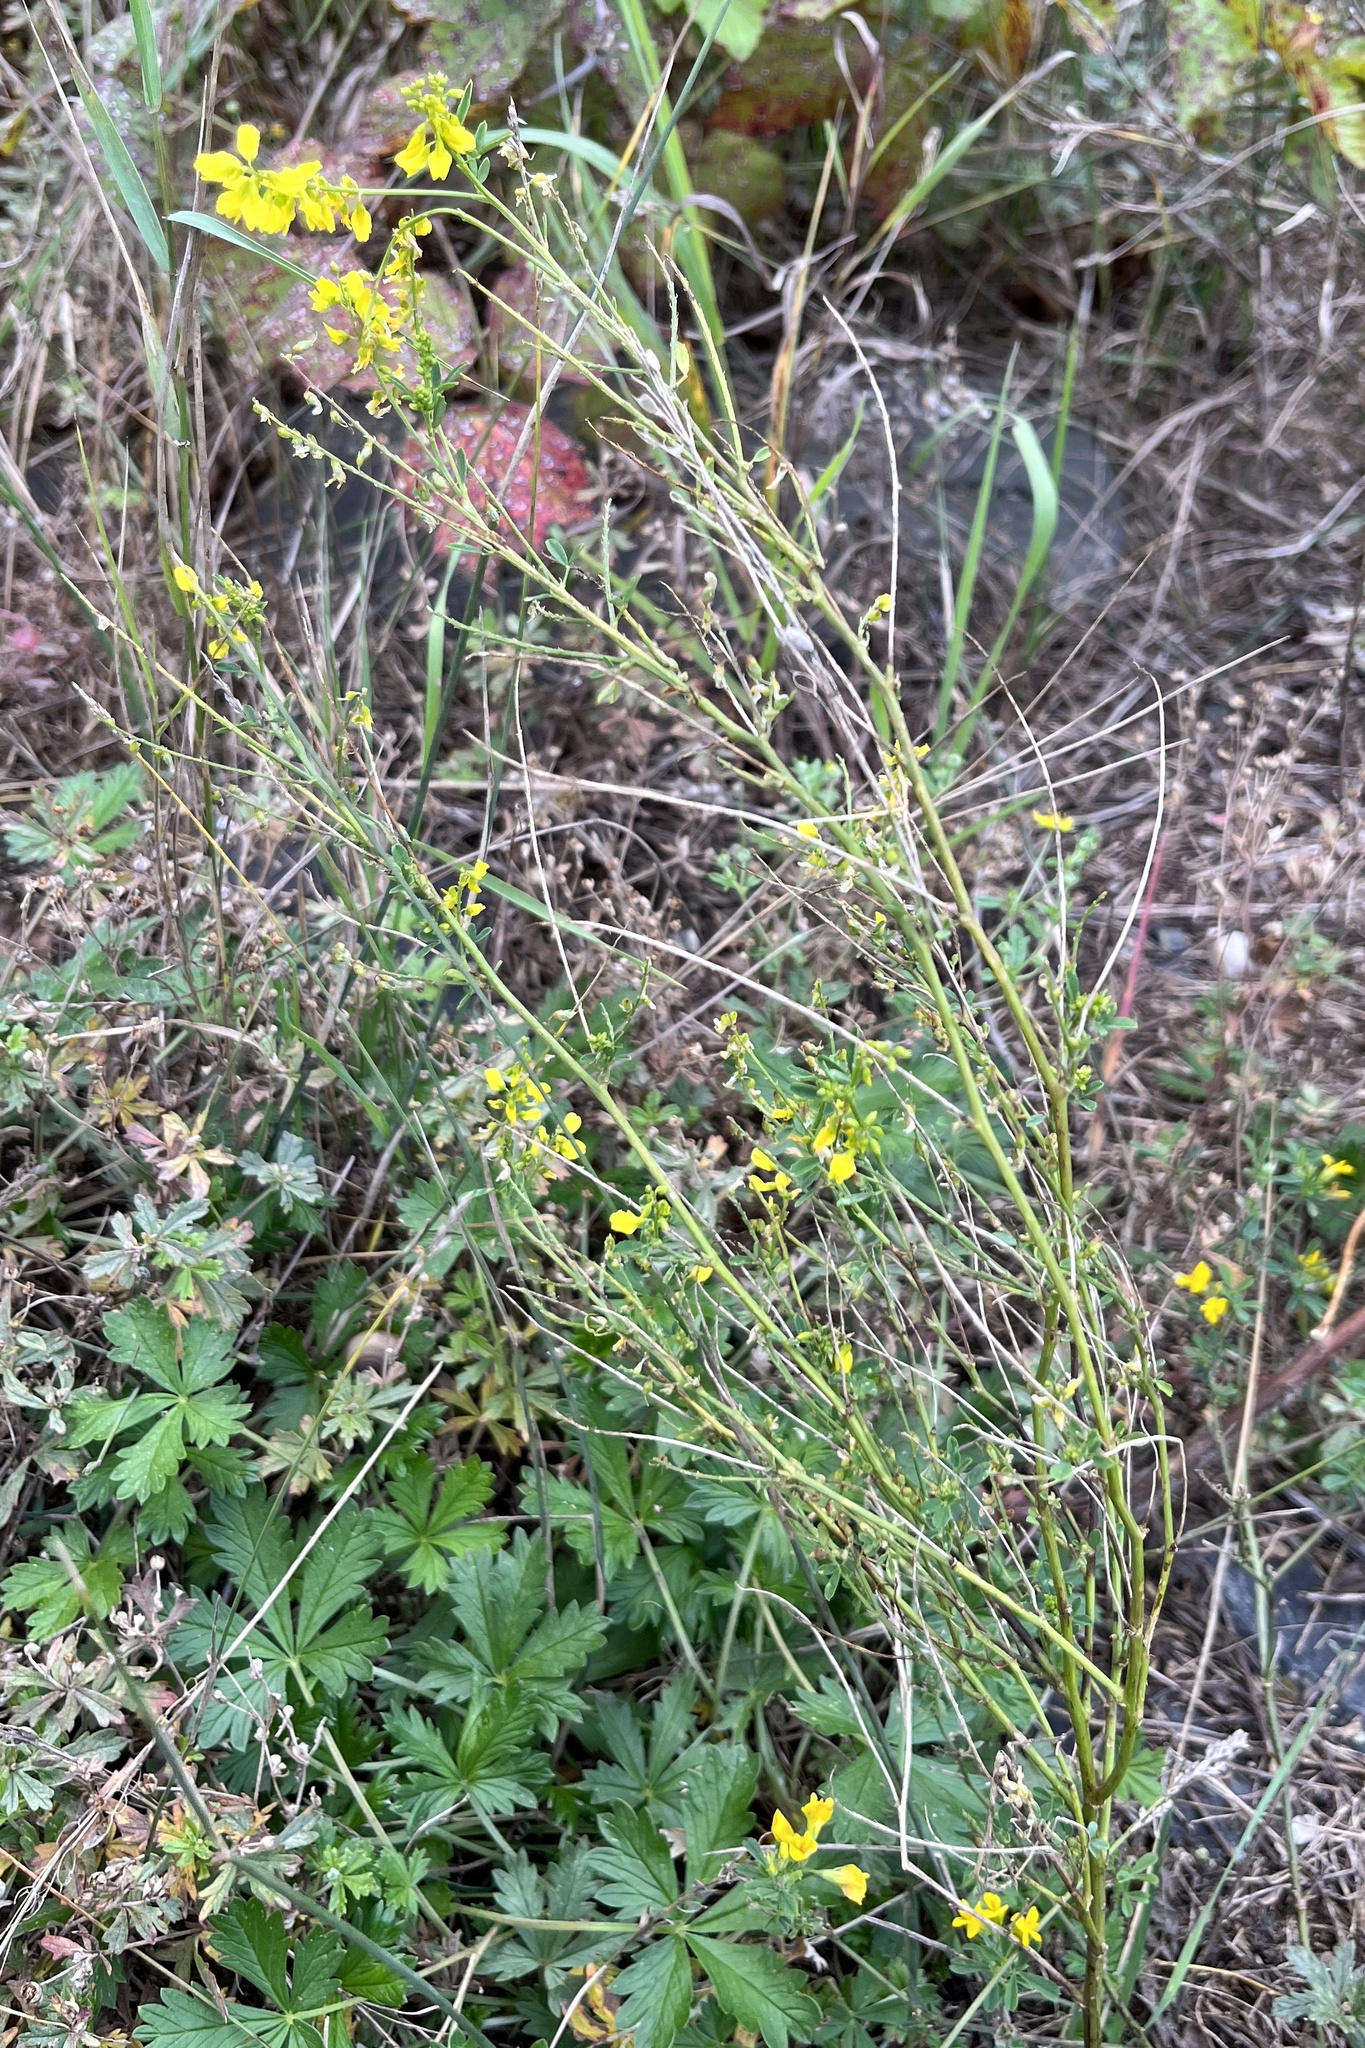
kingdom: Plantae
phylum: Tracheophyta
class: Magnoliopsida
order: Fabales
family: Fabaceae
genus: Melilotus
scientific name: Melilotus officinalis
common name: Sweetclover
